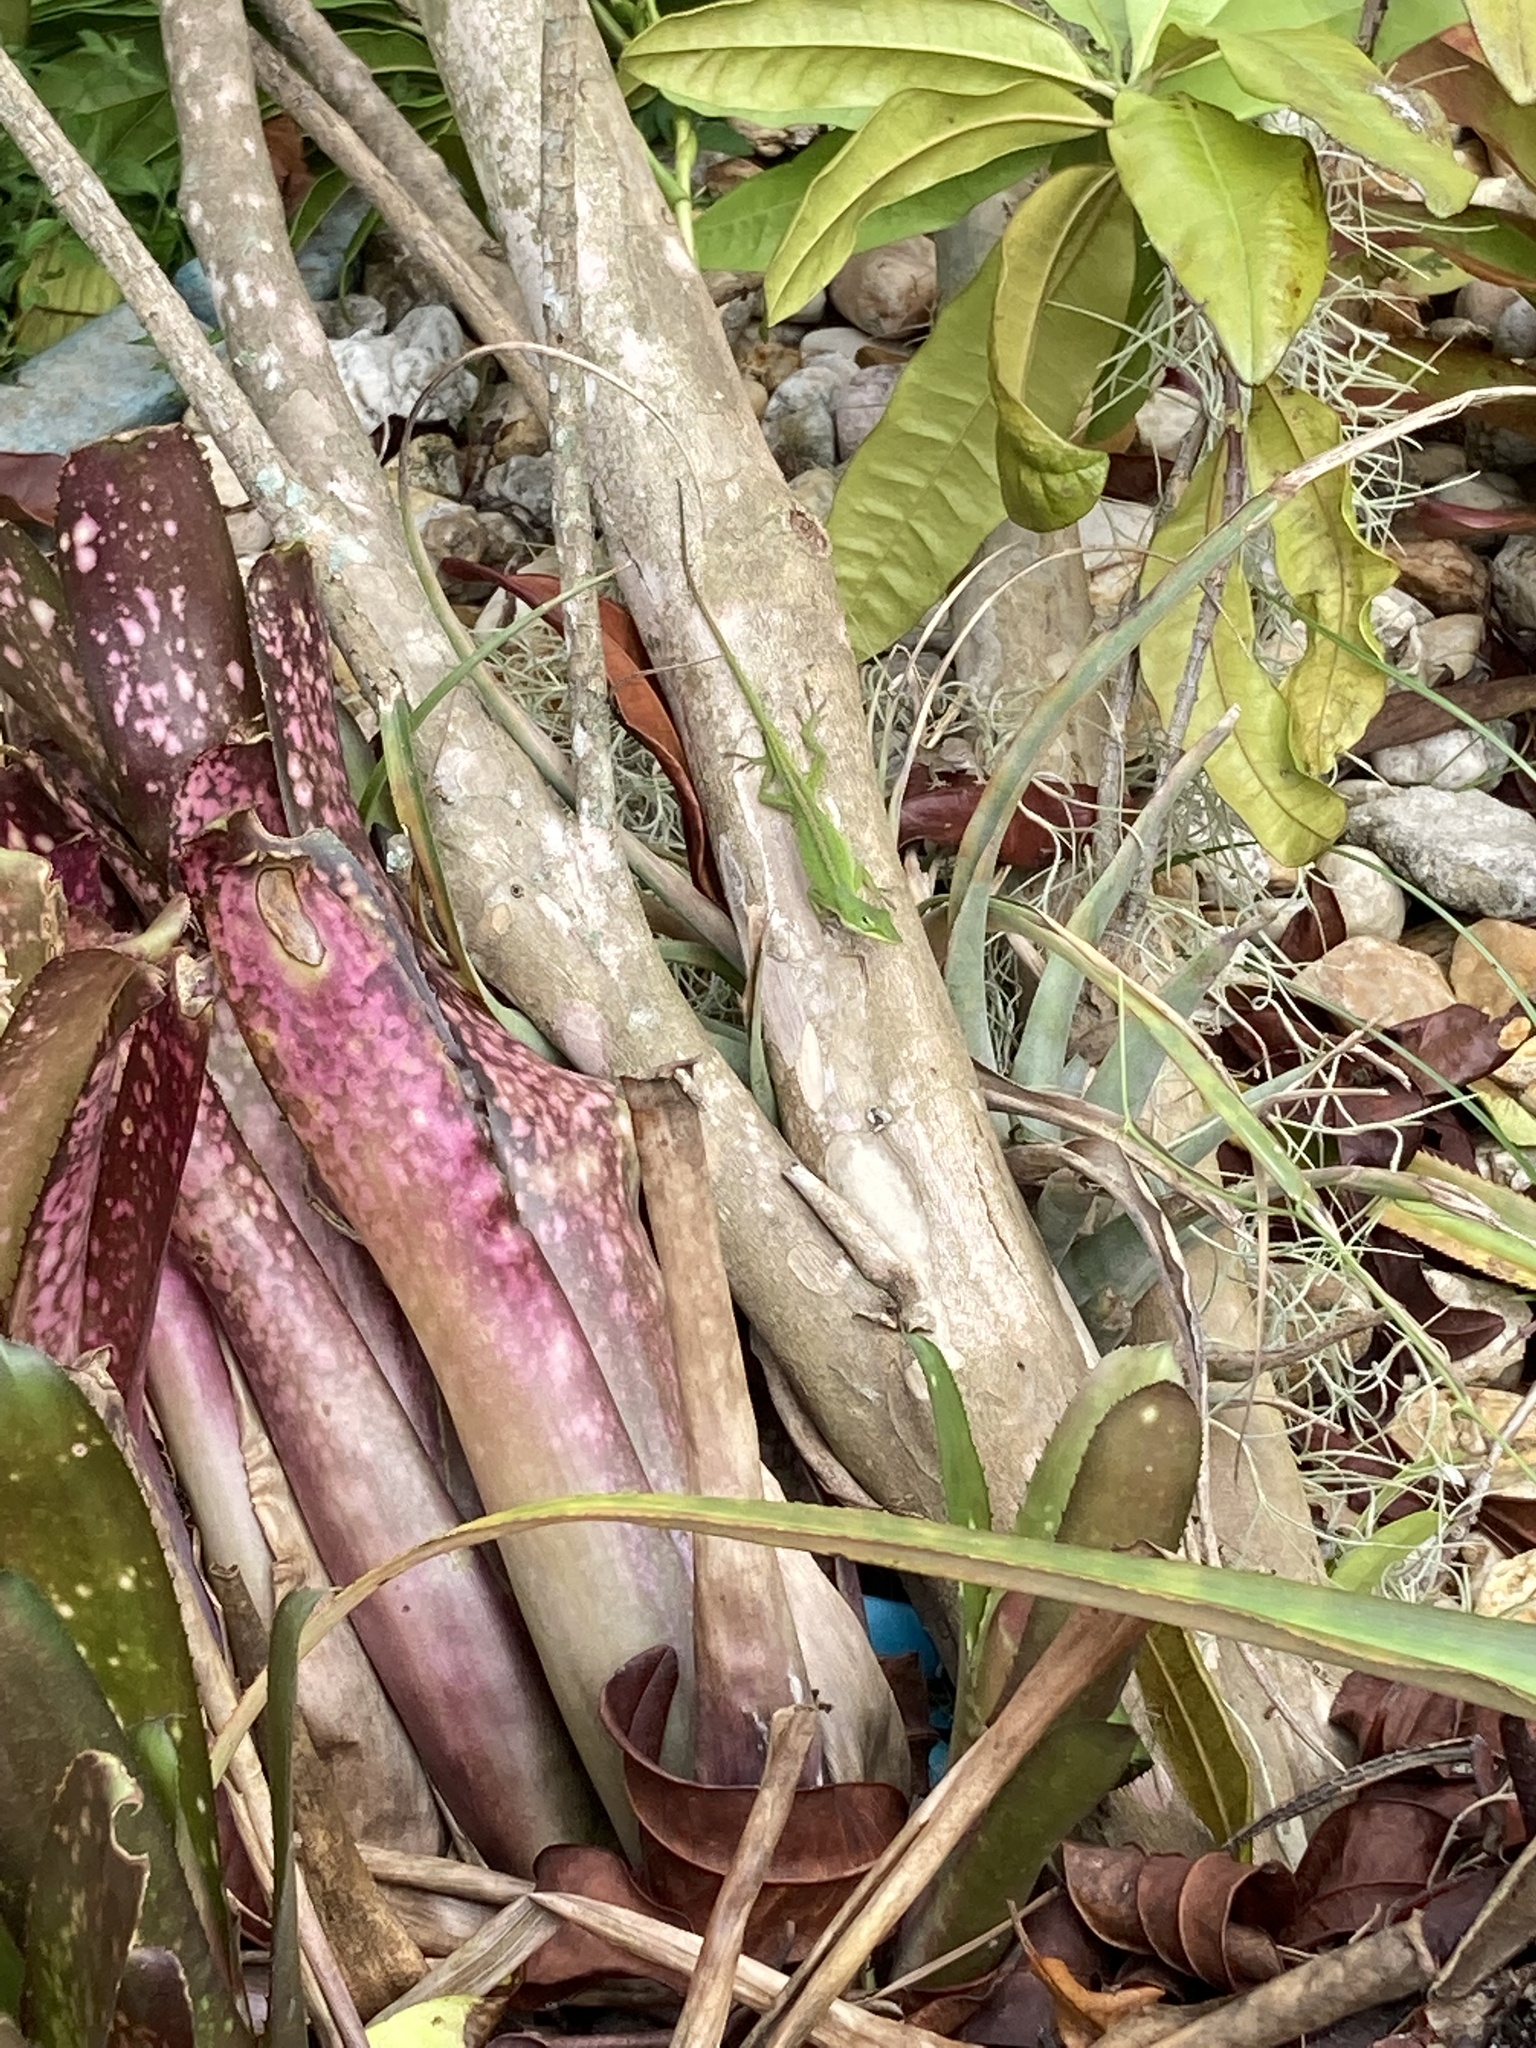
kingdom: Animalia
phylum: Chordata
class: Squamata
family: Dactyloidae
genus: Anolis
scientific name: Anolis carolinensis
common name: Green anole
